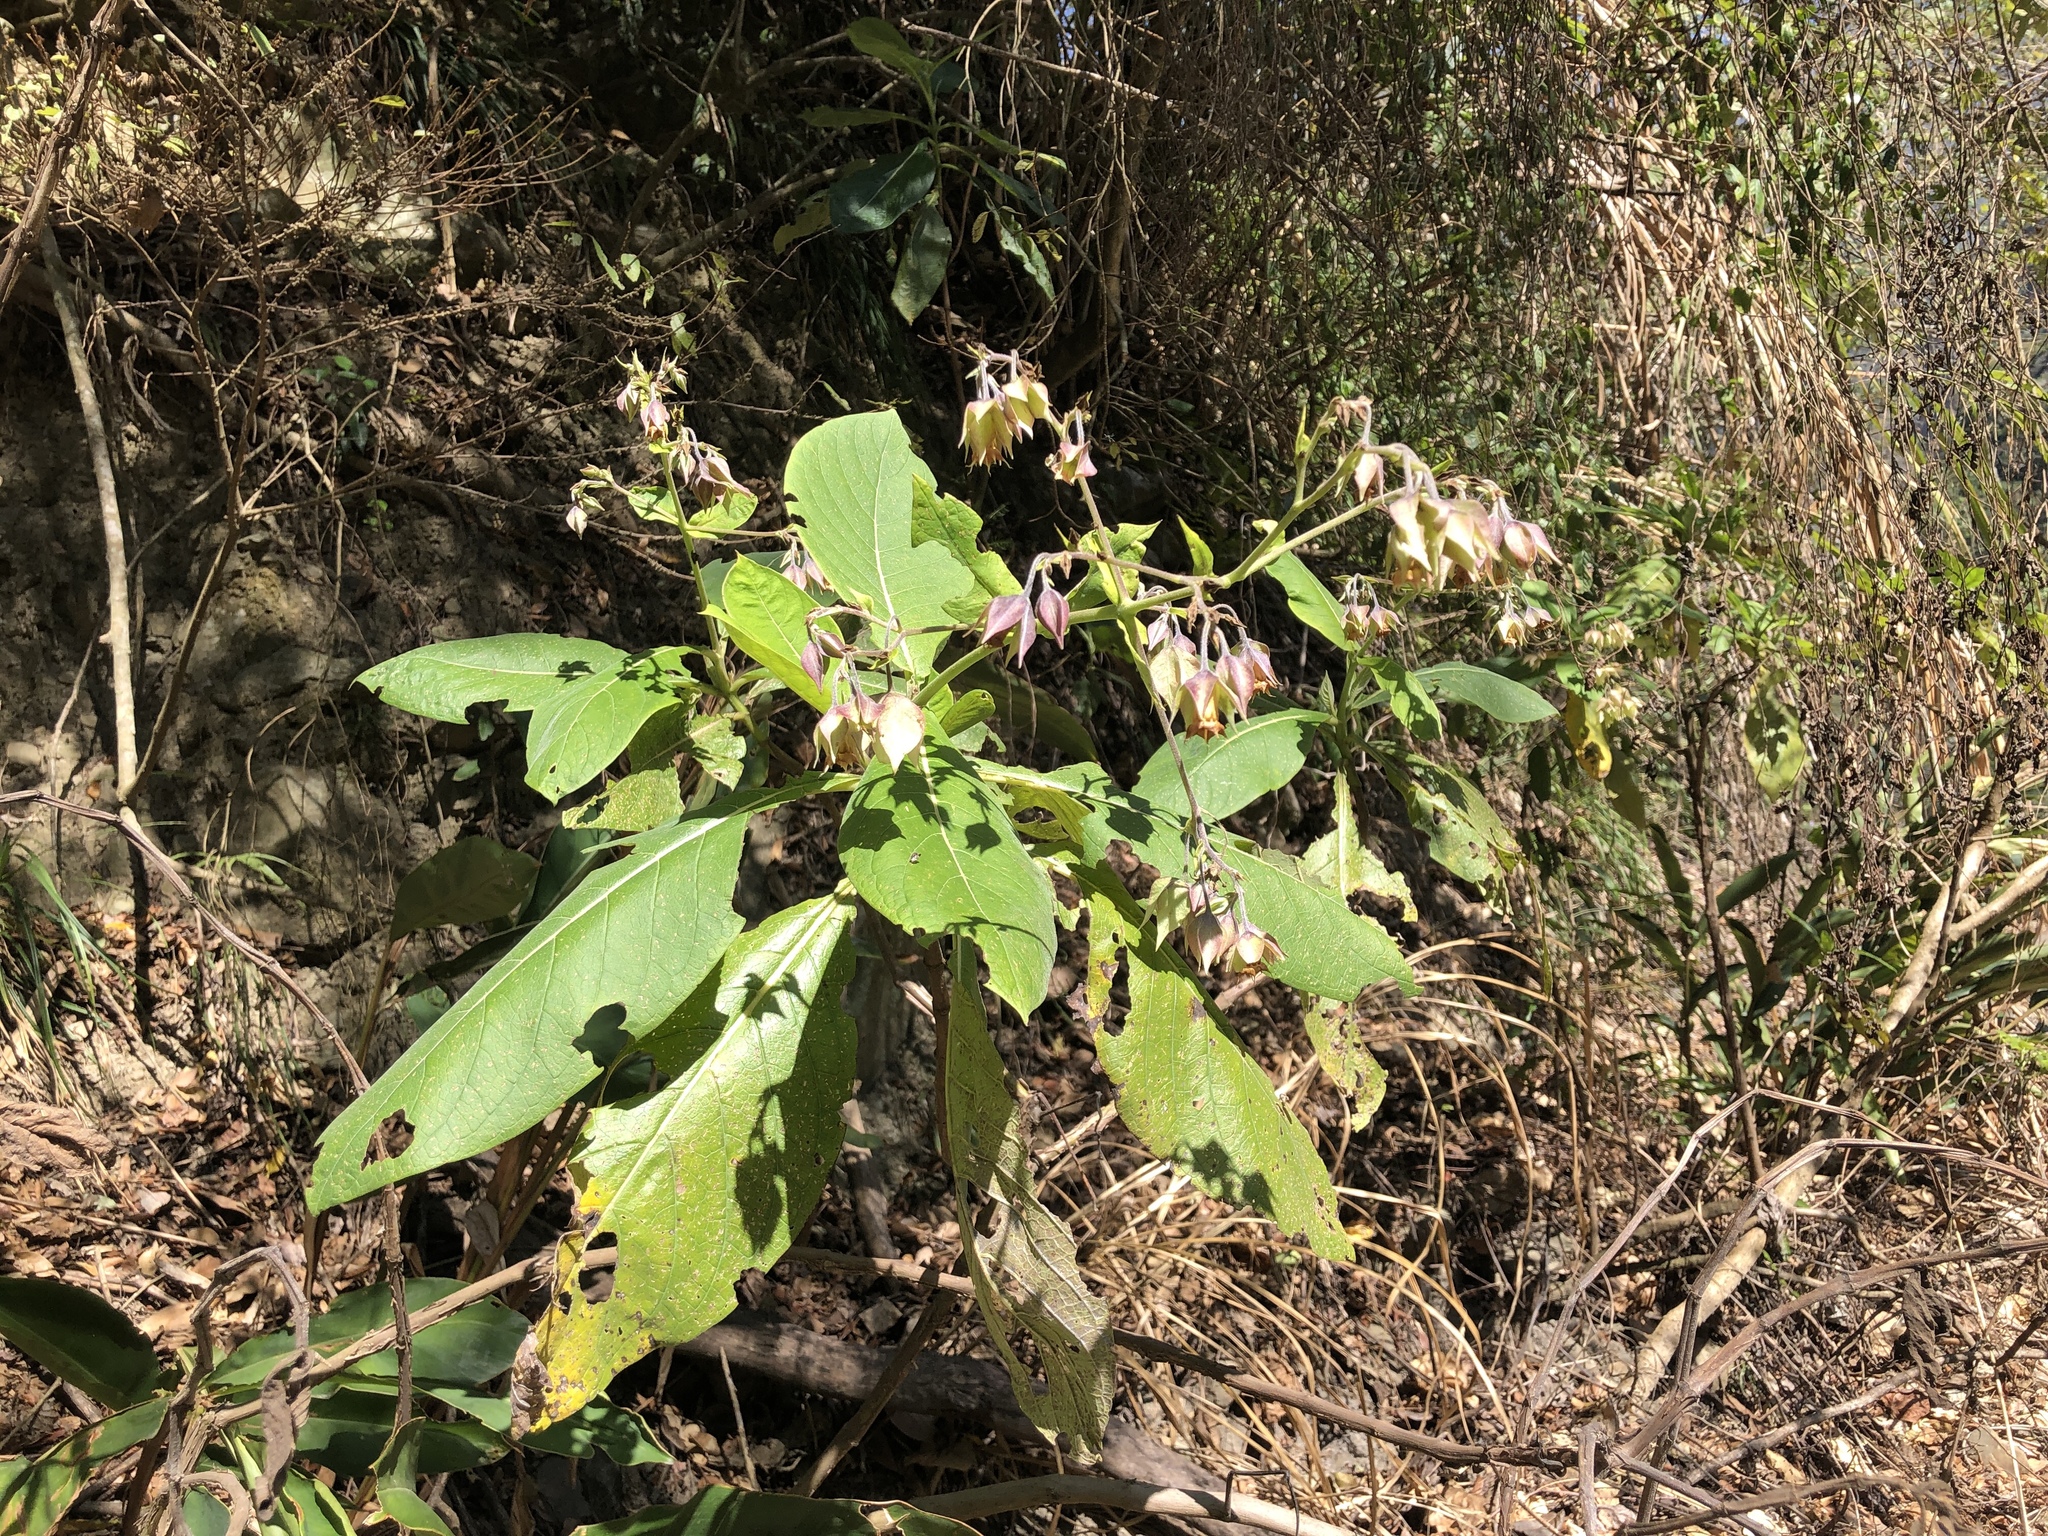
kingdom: Plantae
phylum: Tracheophyta
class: Magnoliopsida
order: Boraginales
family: Boraginaceae
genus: Trichodesma
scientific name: Trichodesma calycosum
